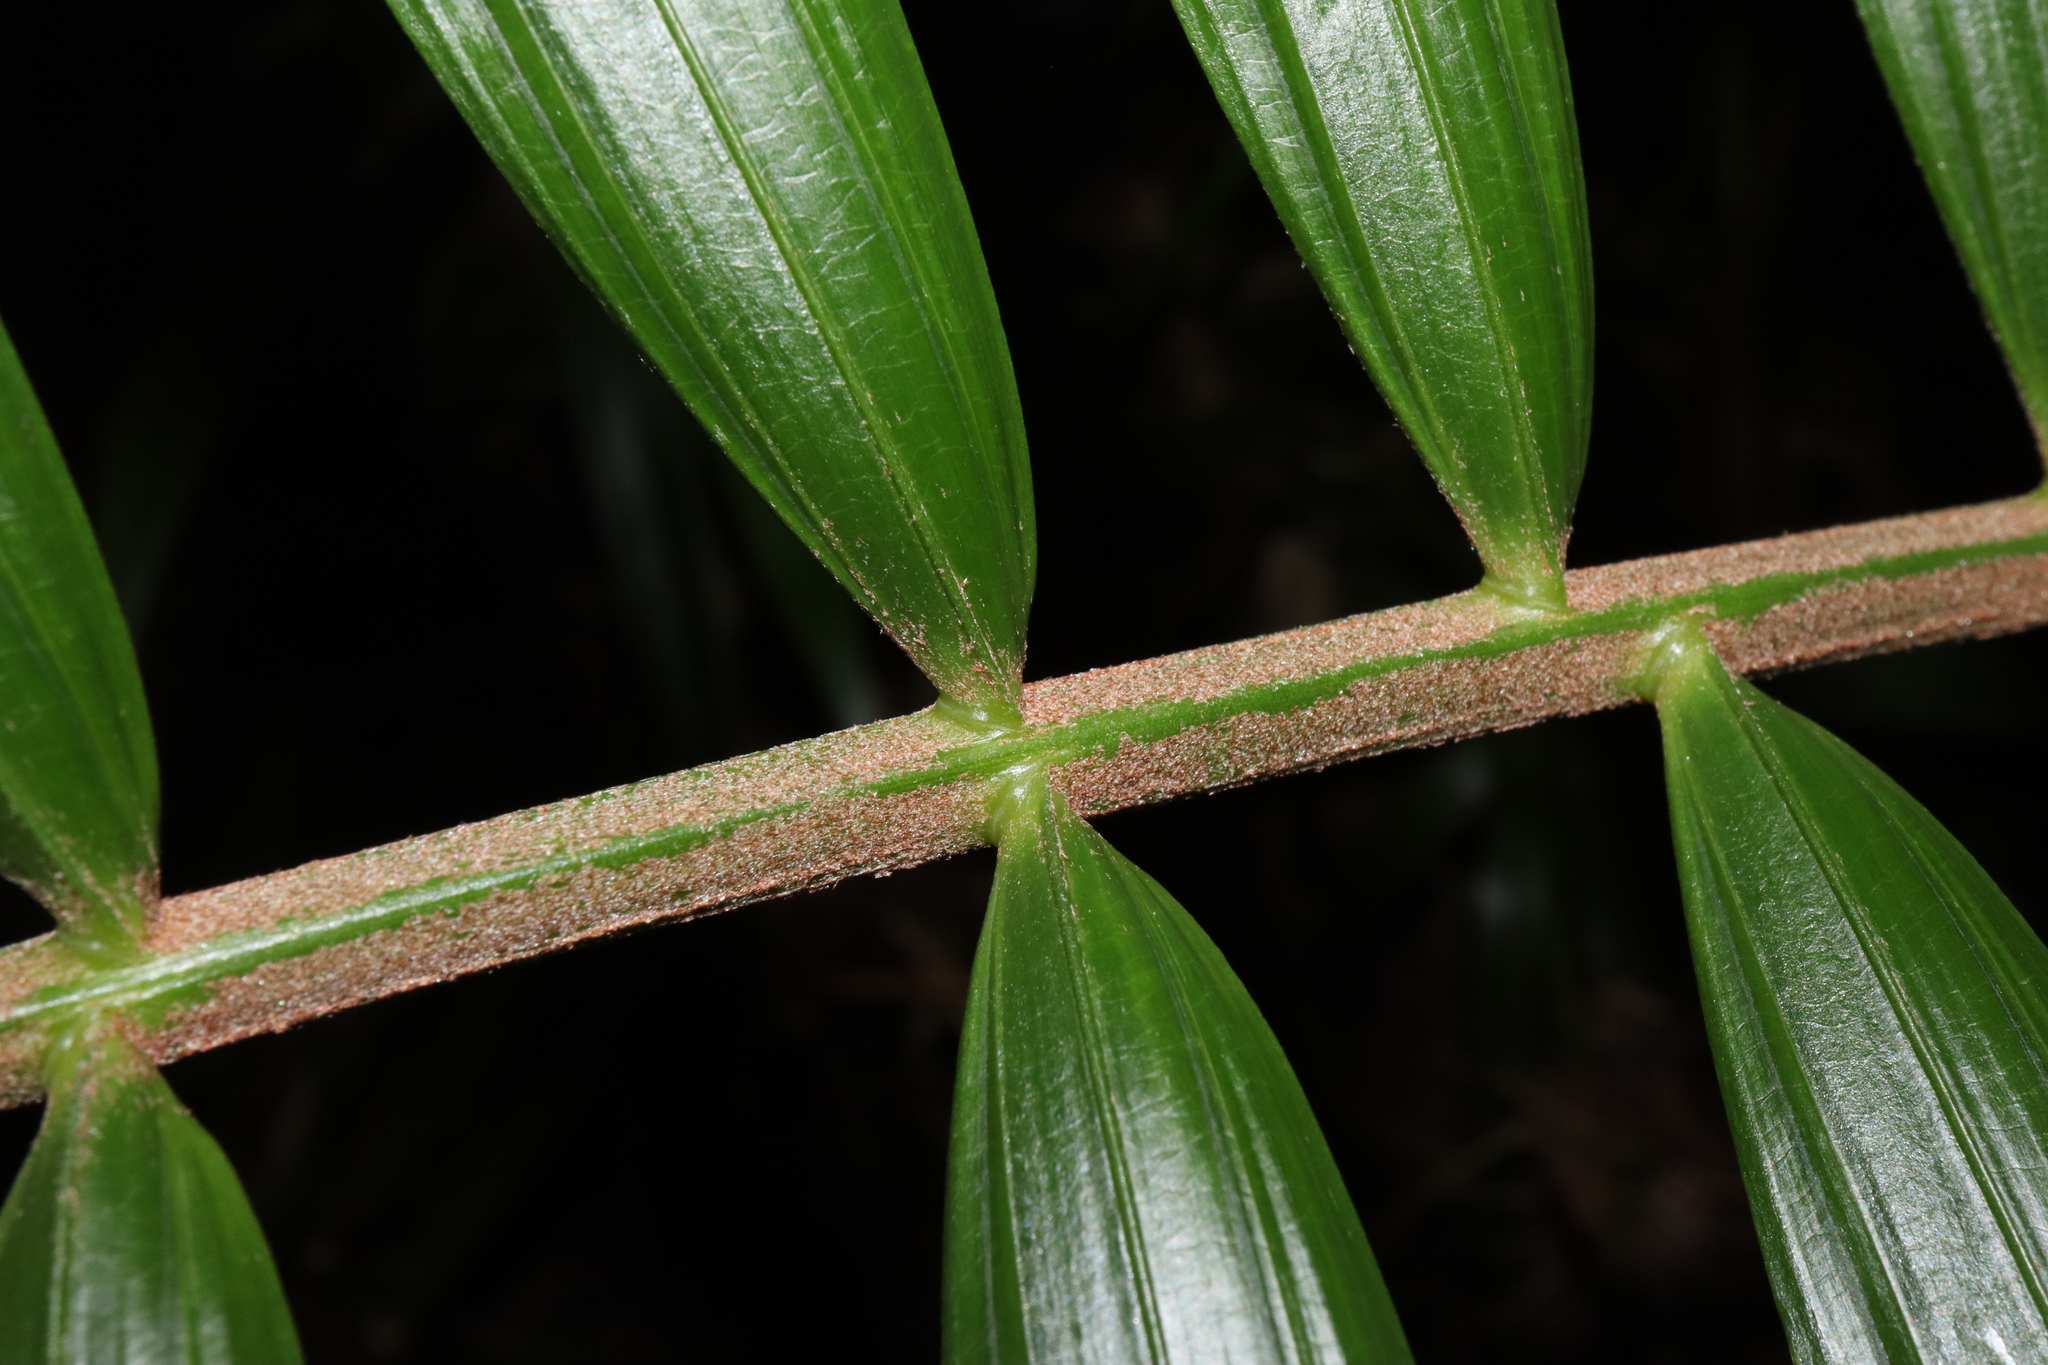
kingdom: Plantae
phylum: Tracheophyta
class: Liliopsida
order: Arecales
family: Arecaceae
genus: Calamus
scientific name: Calamus australis
